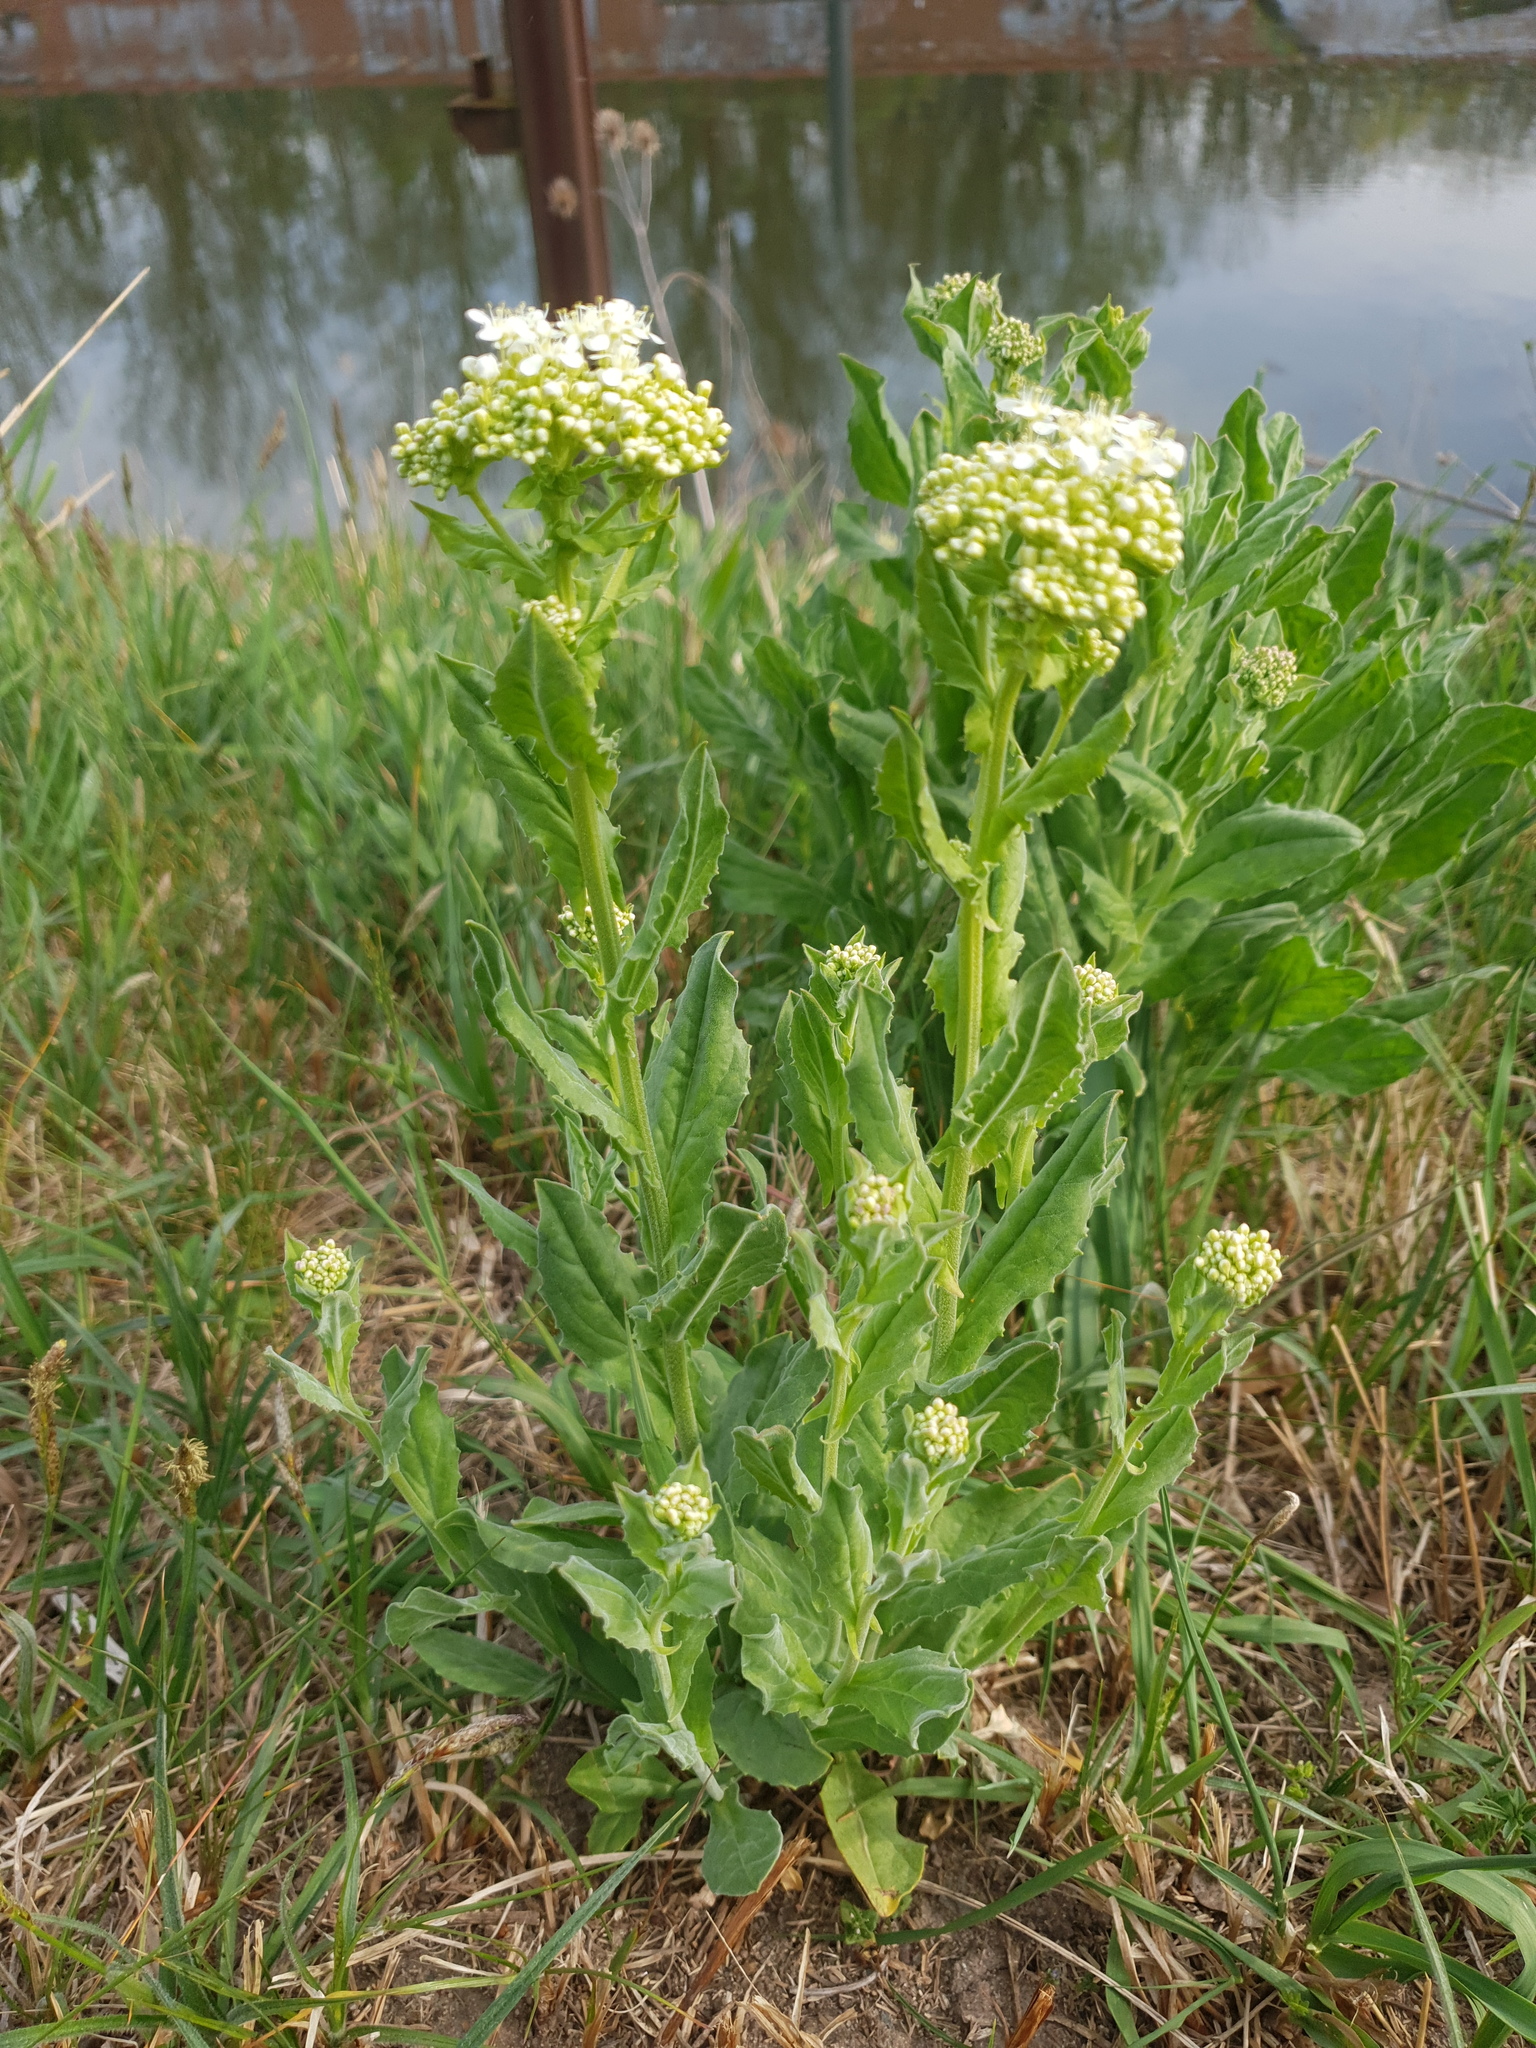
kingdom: Plantae
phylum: Tracheophyta
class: Magnoliopsida
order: Brassicales
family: Brassicaceae
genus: Lepidium
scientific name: Lepidium draba
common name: Hoary cress
